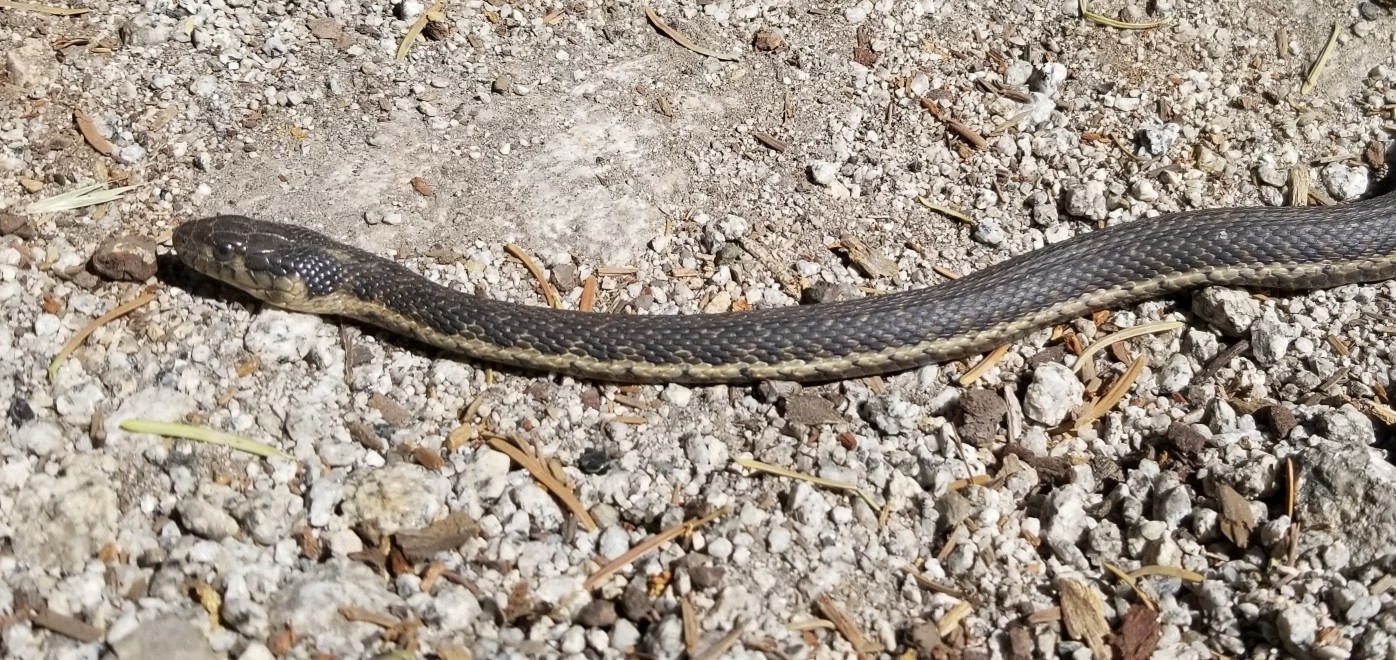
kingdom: Animalia
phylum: Chordata
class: Squamata
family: Colubridae
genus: Thamnophis
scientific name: Thamnophis couchii
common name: Western aquatic garter snake
